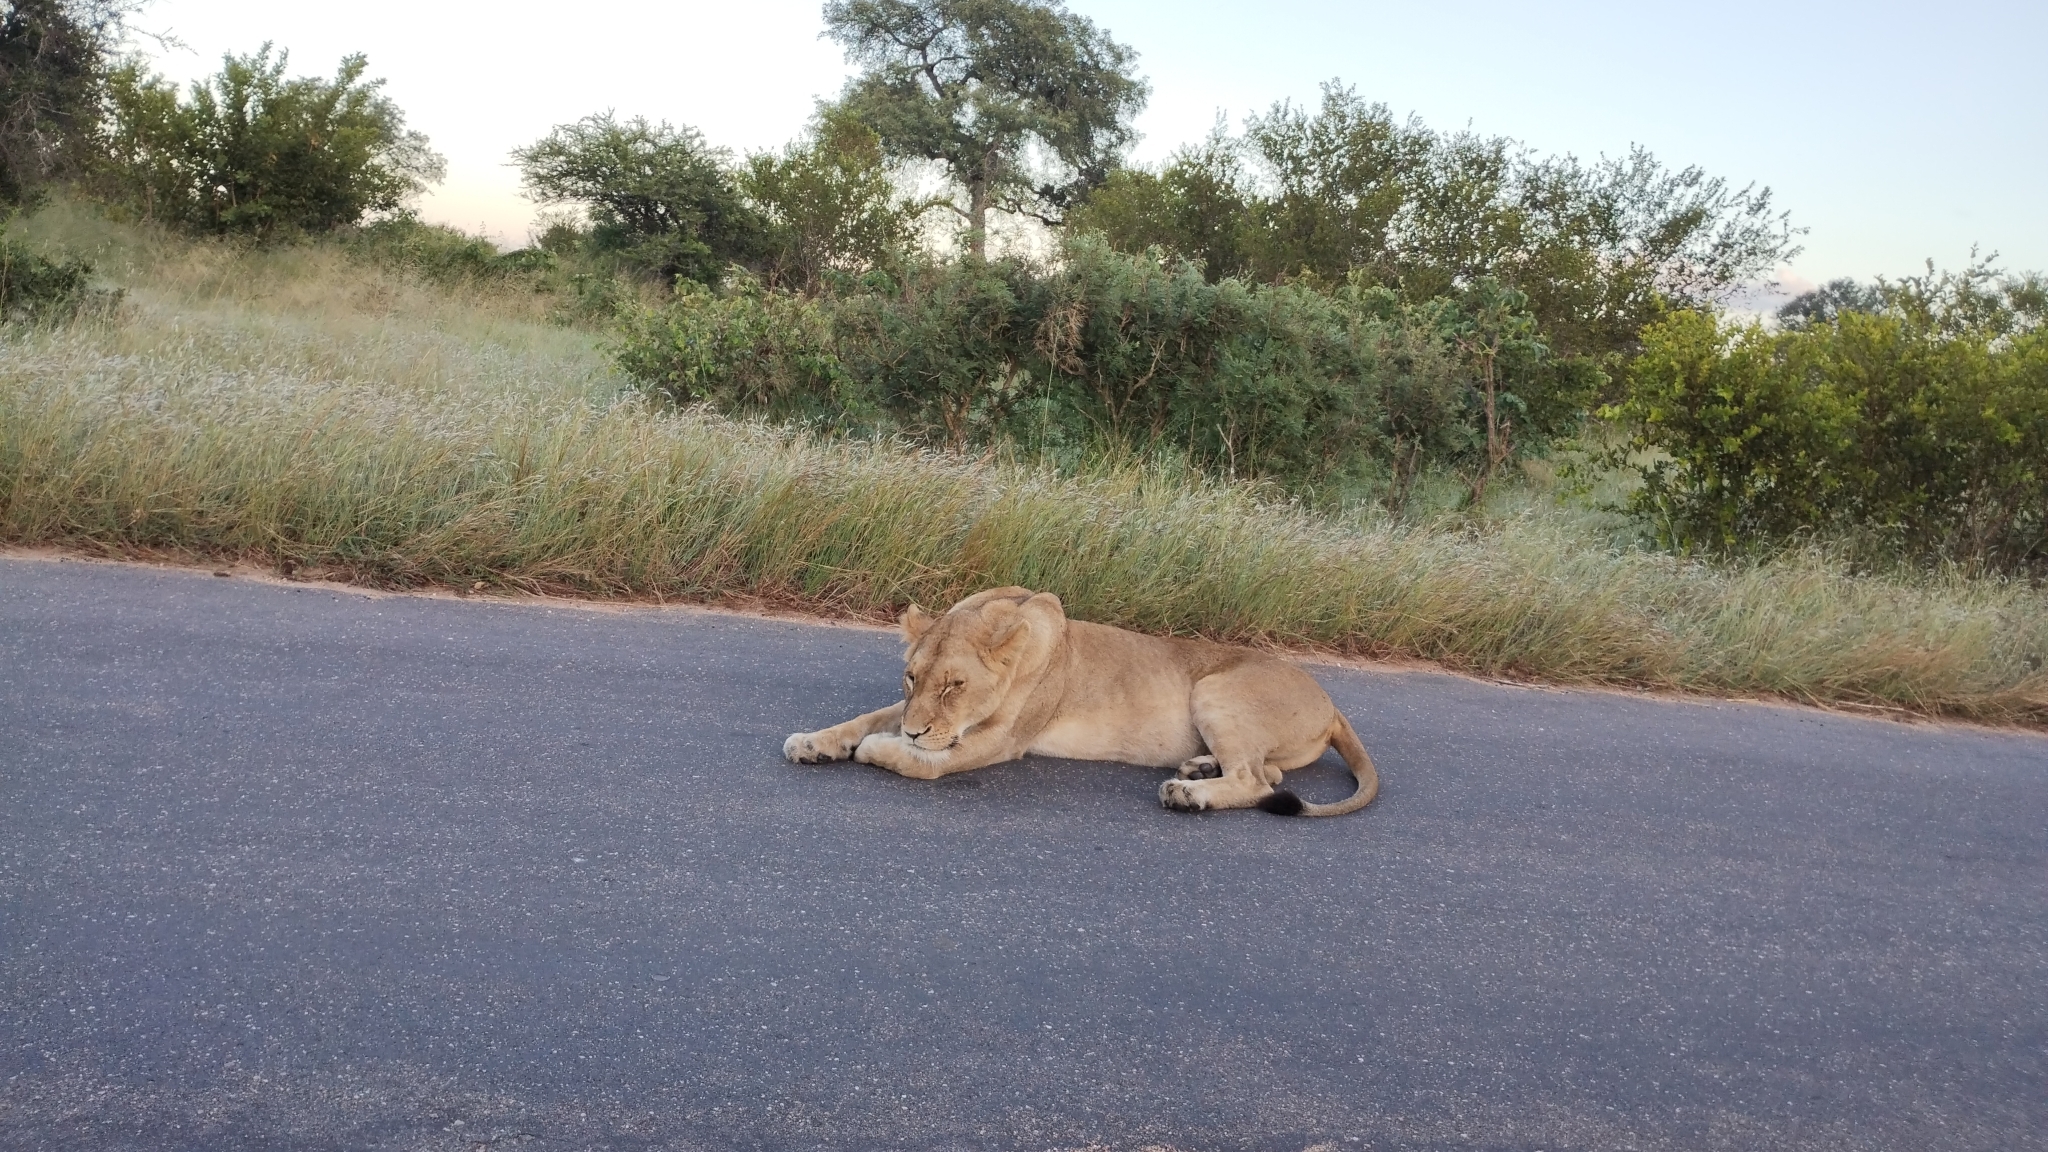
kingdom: Animalia
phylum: Chordata
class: Mammalia
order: Carnivora
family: Felidae
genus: Panthera
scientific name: Panthera leo
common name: Lion
